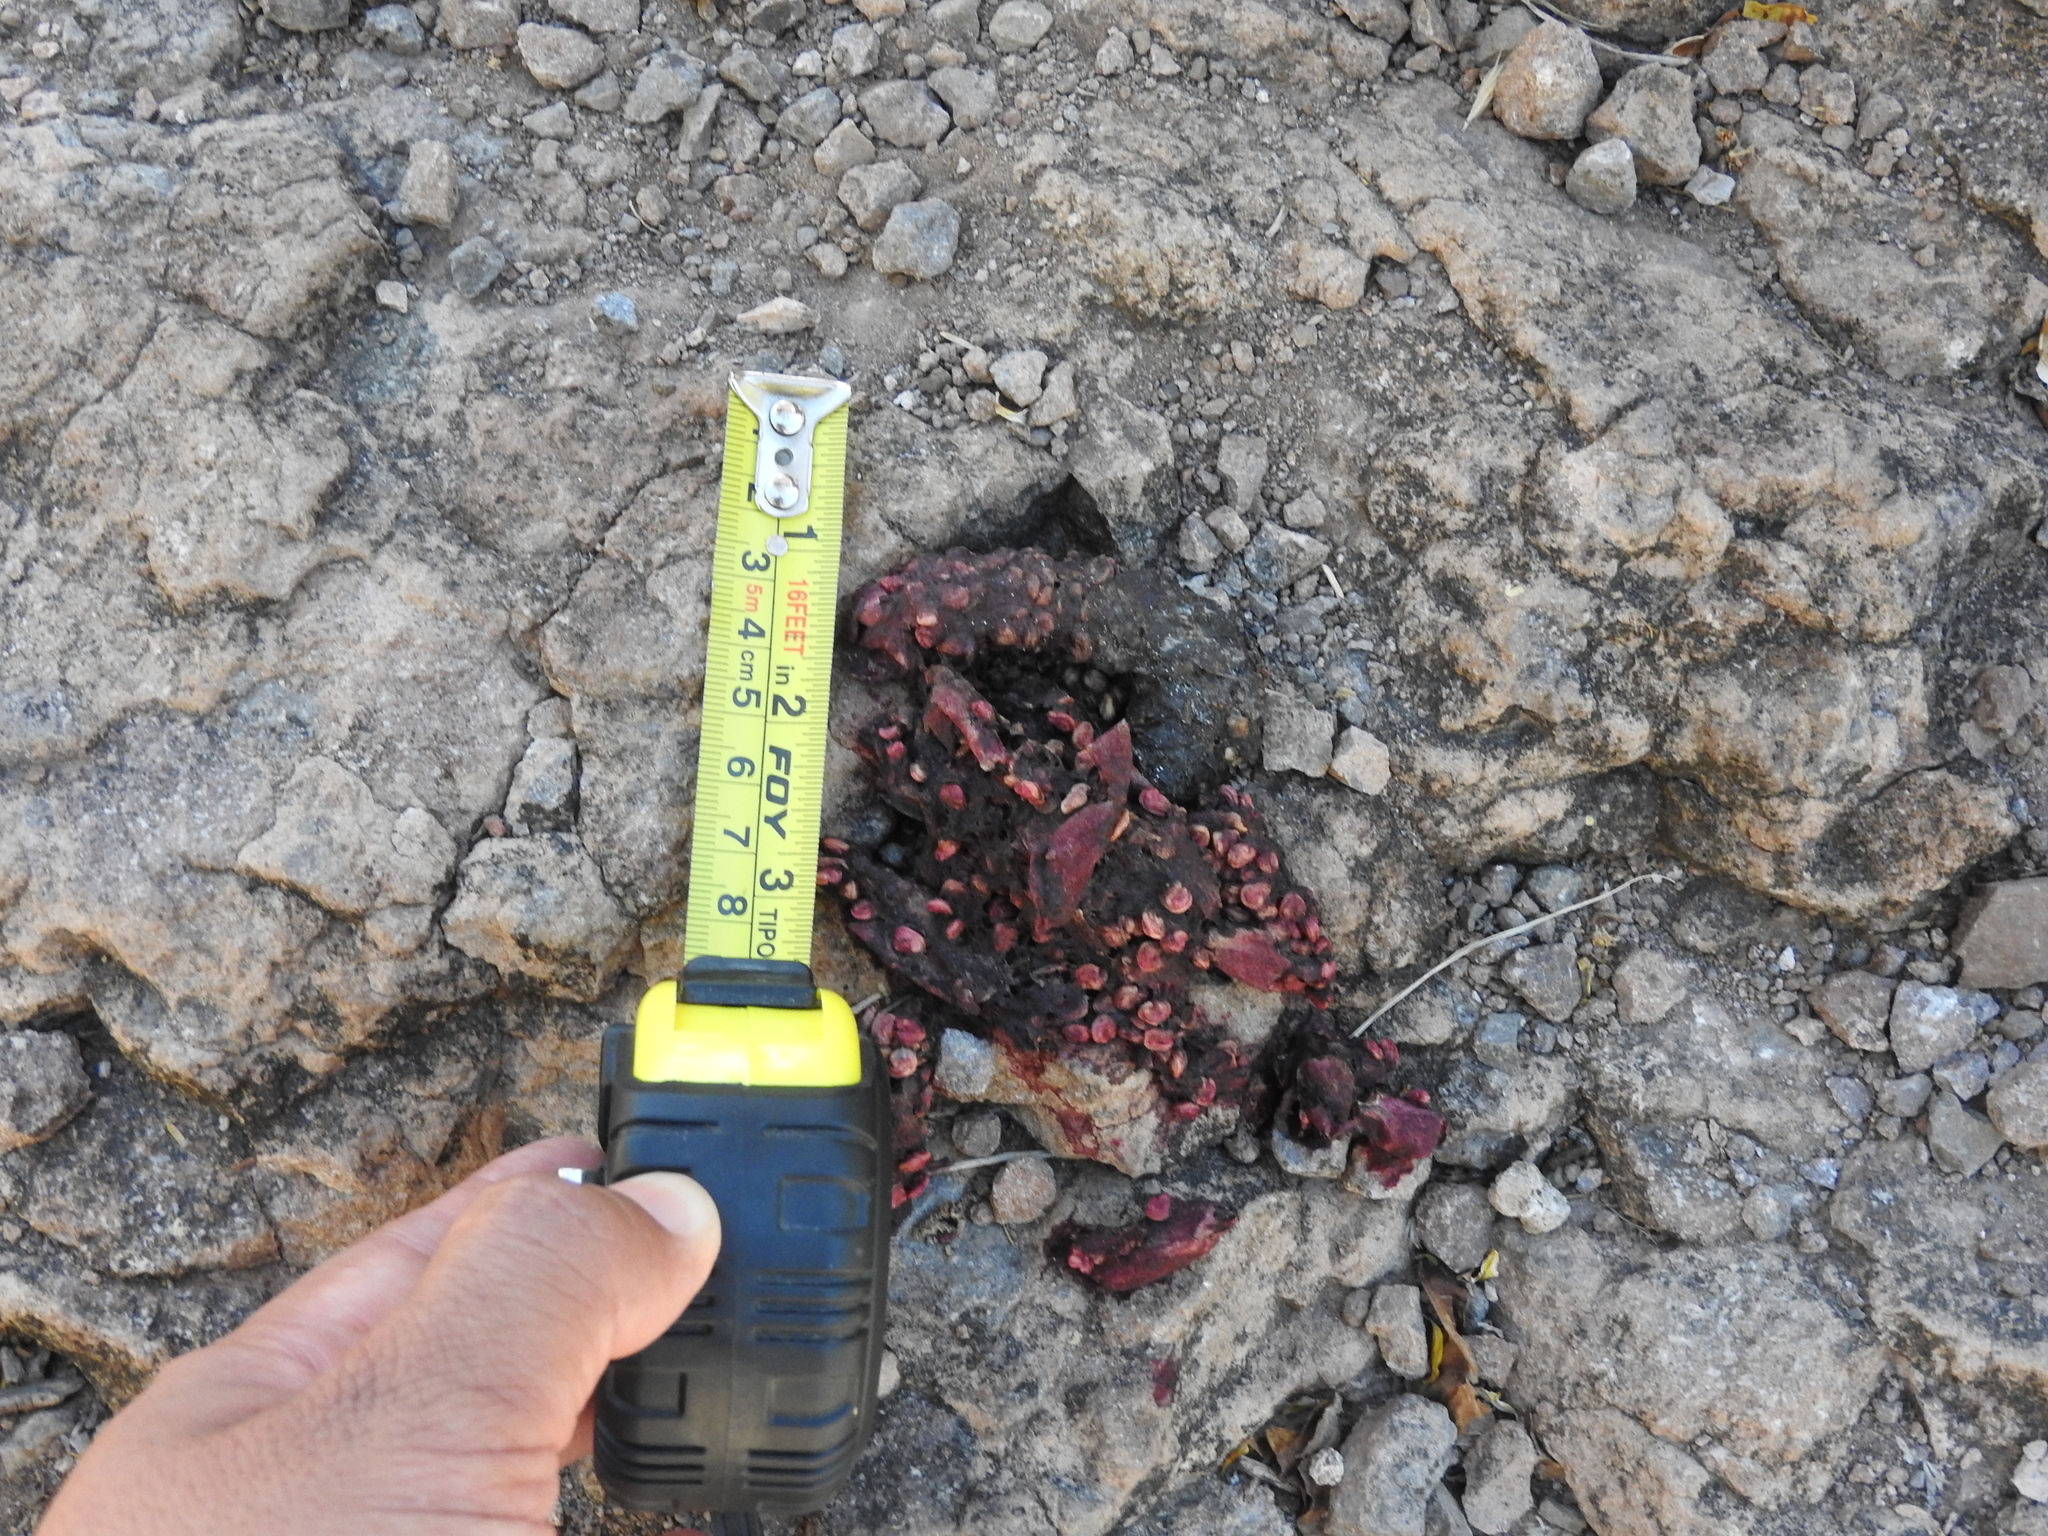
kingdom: Animalia
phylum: Chordata
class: Mammalia
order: Carnivora
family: Procyonidae
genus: Bassariscus
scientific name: Bassariscus astutus
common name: Ringtail
